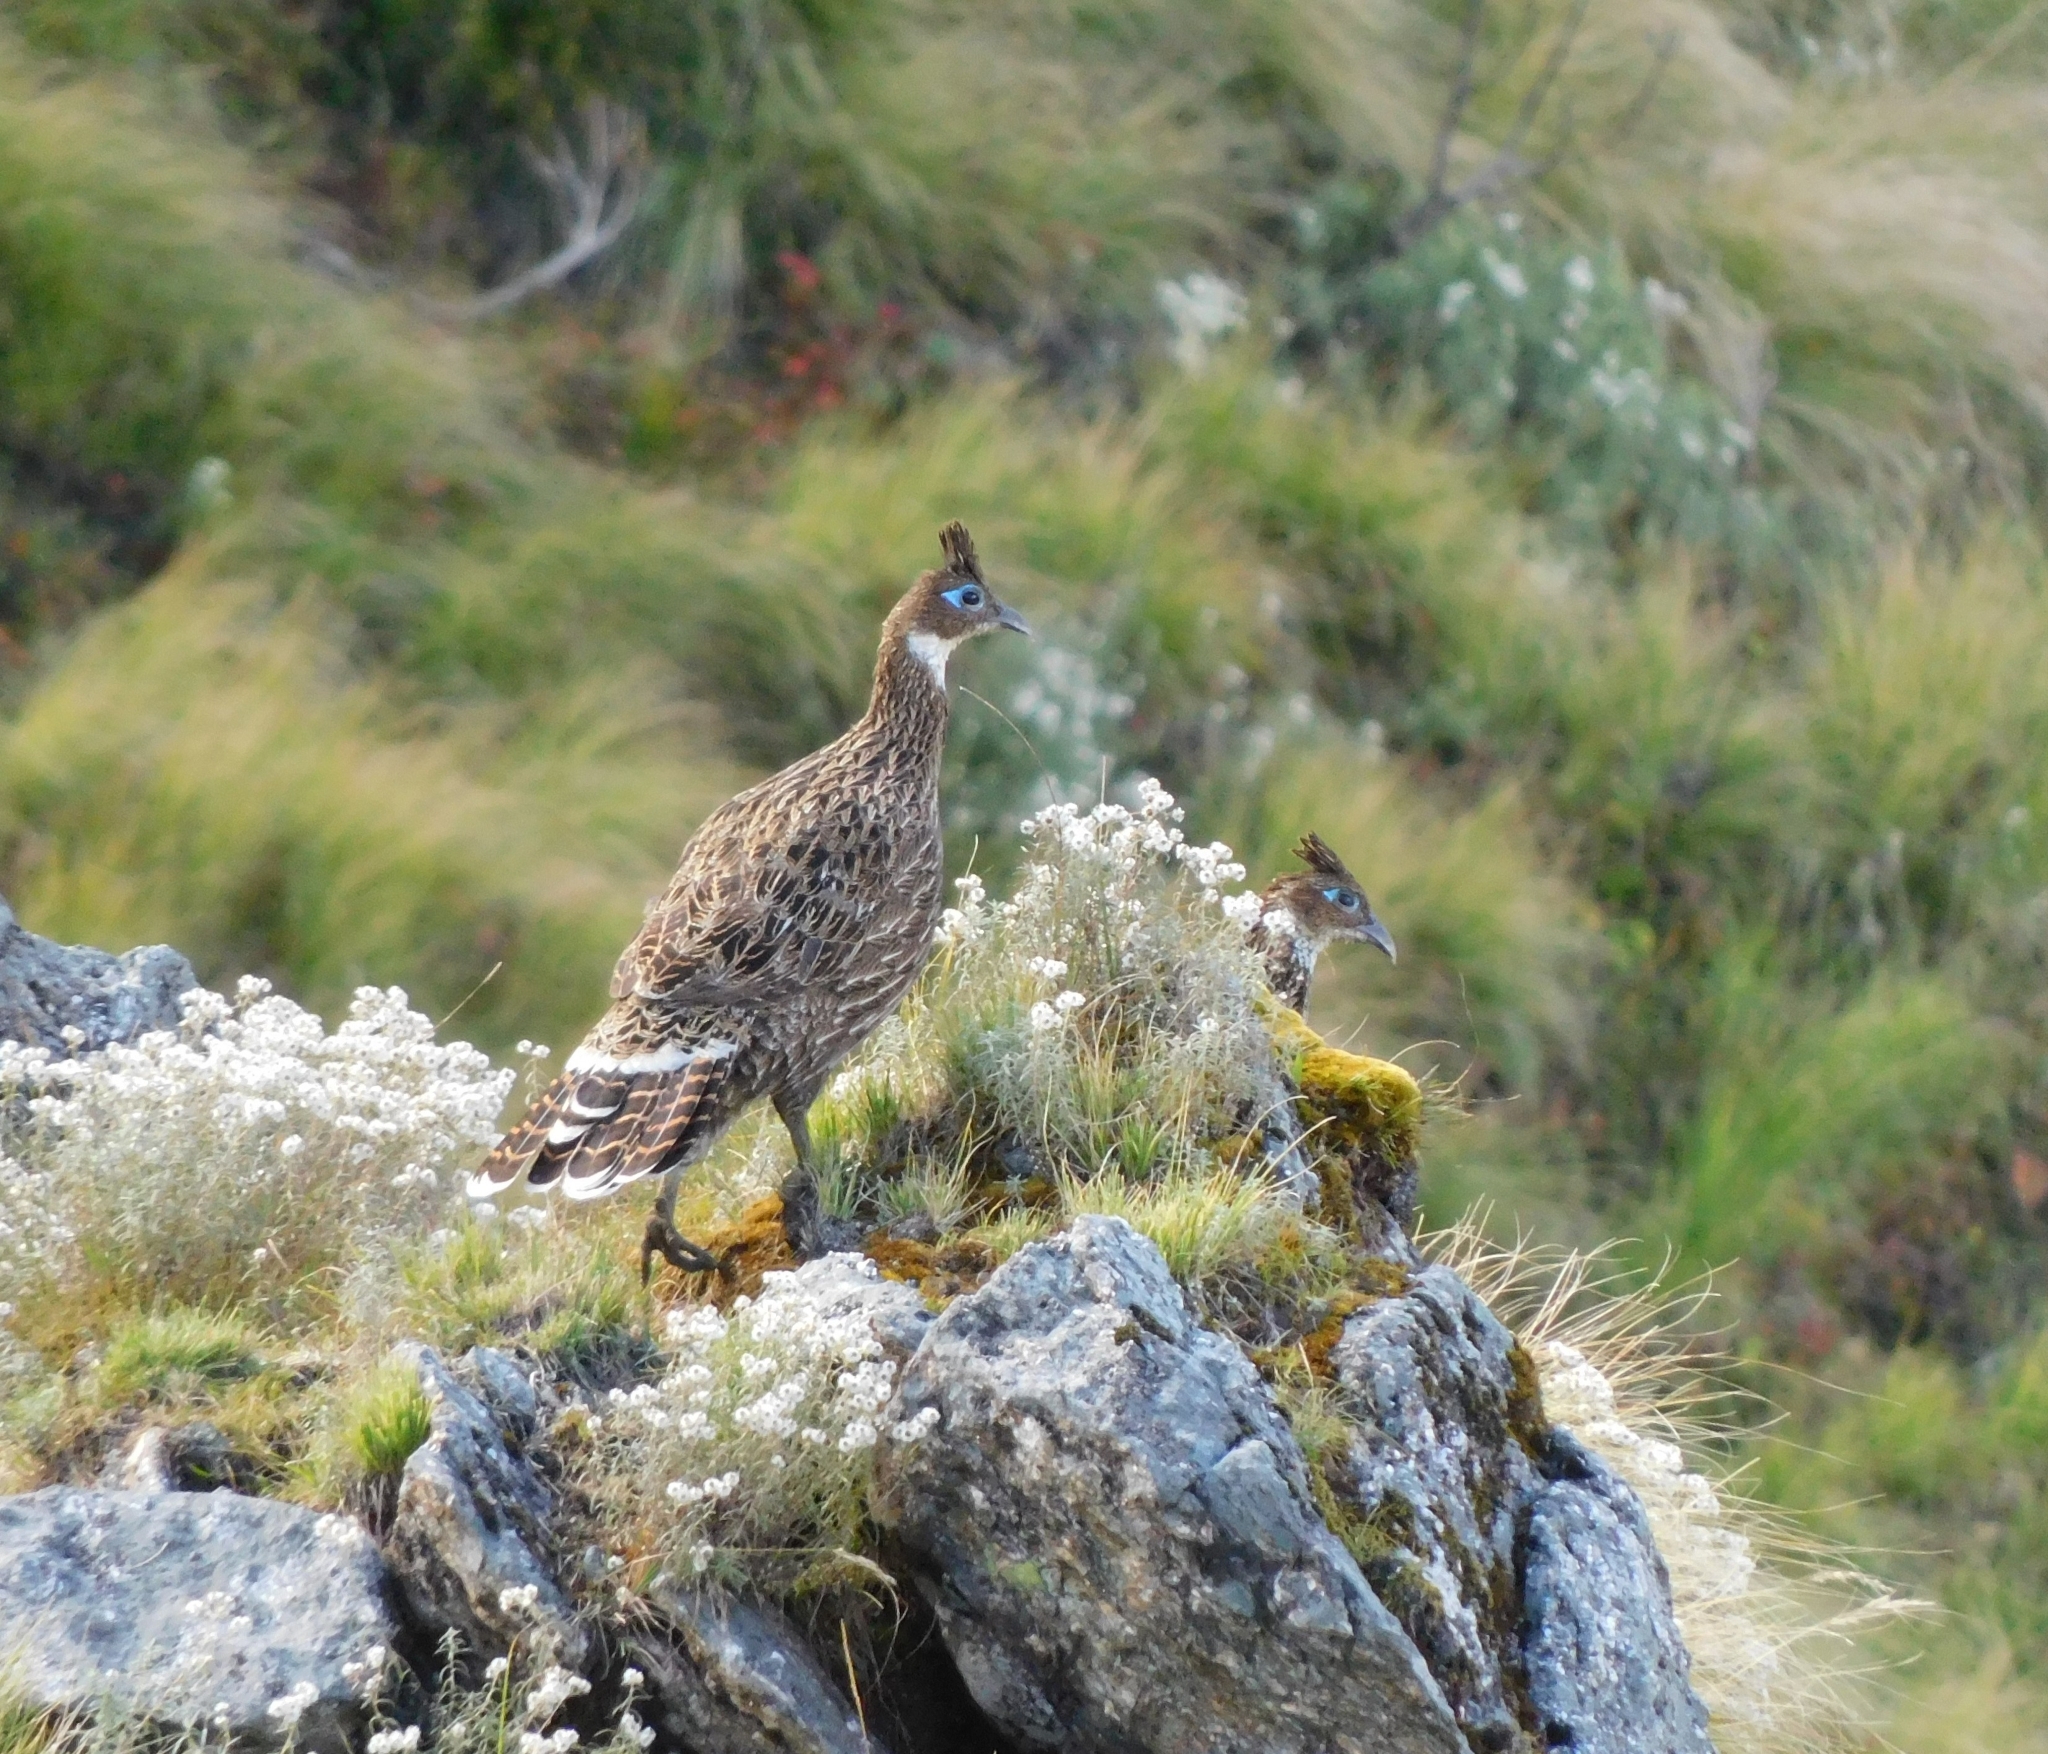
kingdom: Animalia
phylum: Chordata
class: Aves
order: Galliformes
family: Phasianidae
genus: Lophophorus
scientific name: Lophophorus impejanus
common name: Himalayan monal
